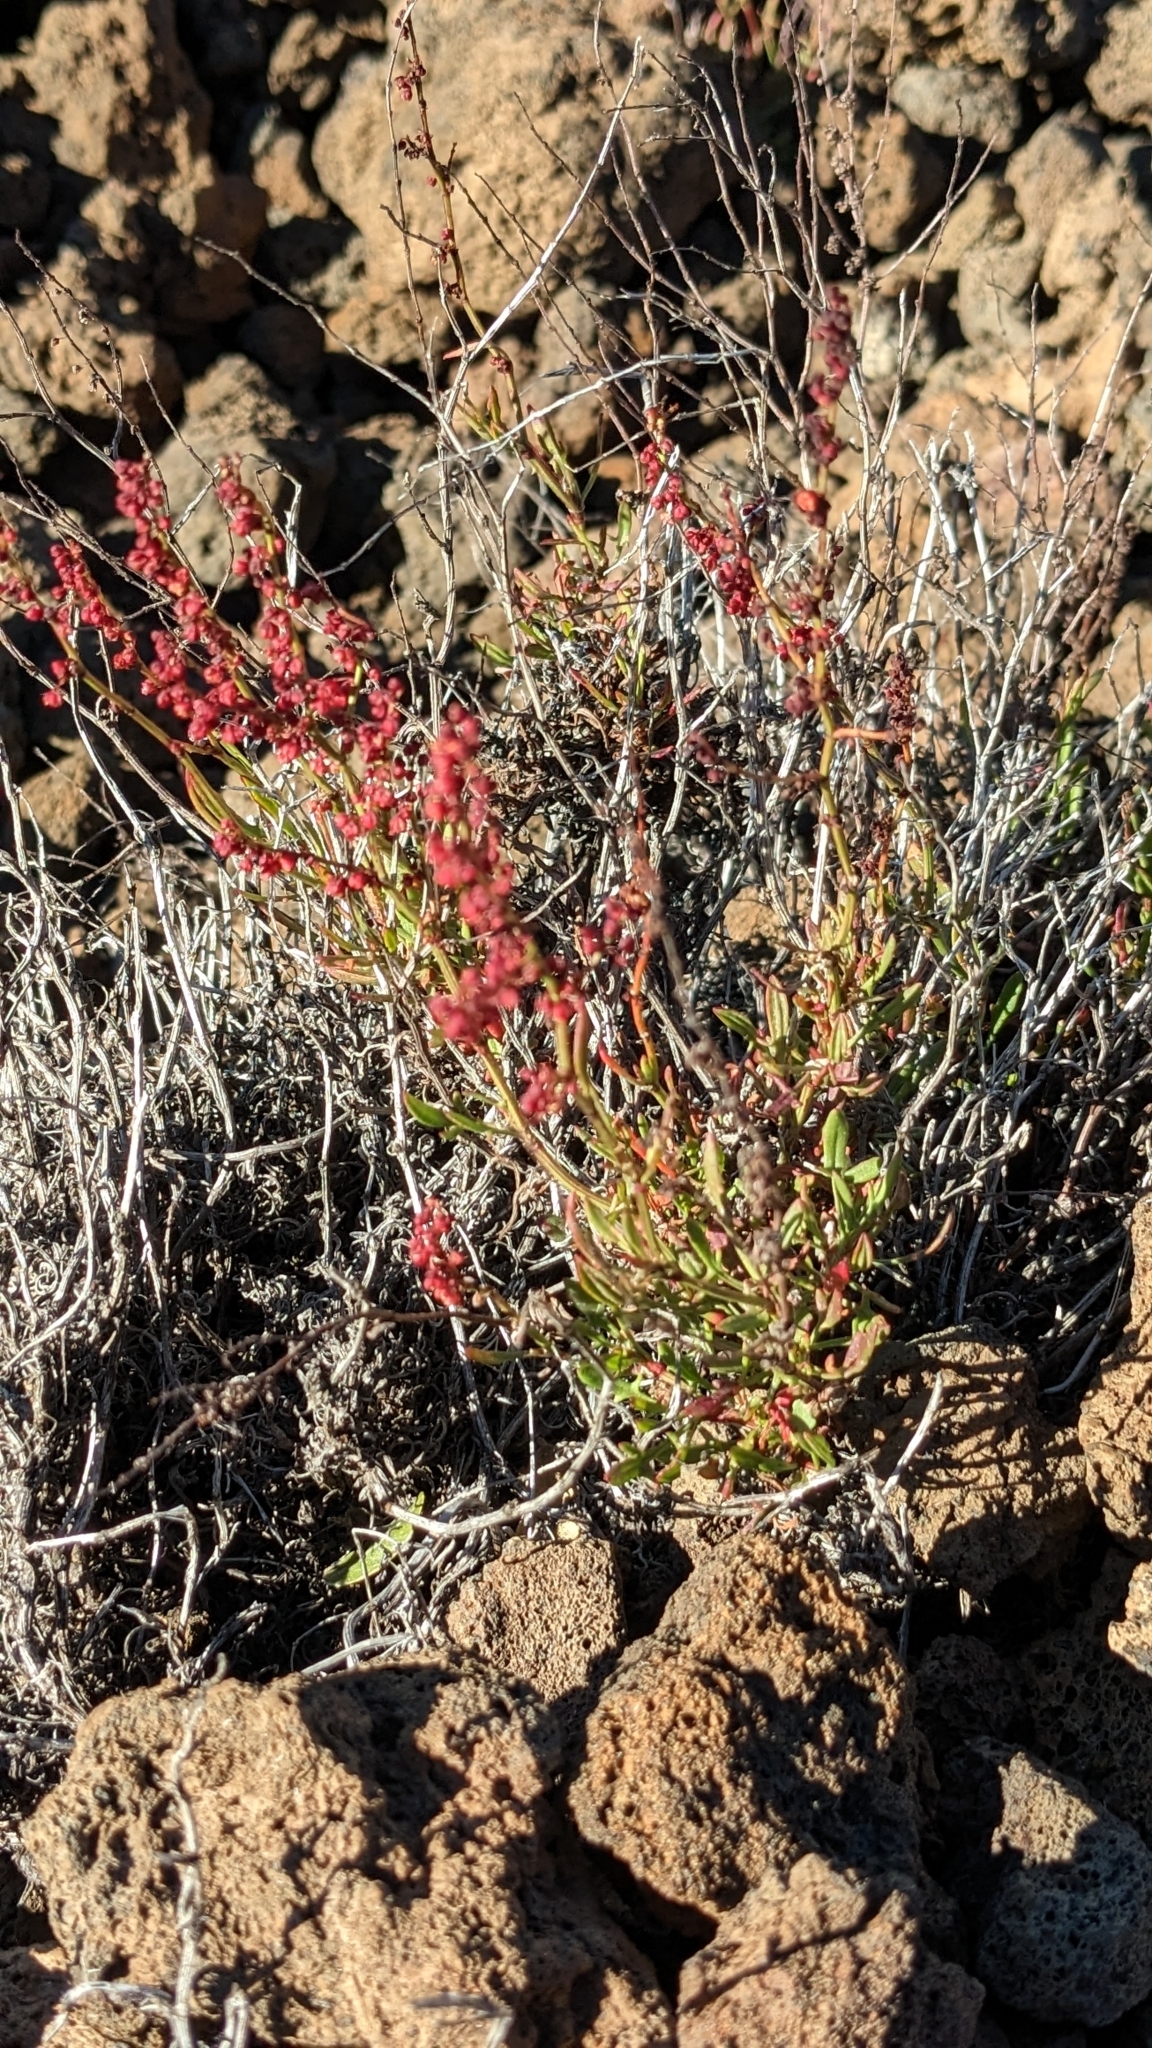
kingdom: Plantae
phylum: Tracheophyta
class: Magnoliopsida
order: Caryophyllales
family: Polygonaceae
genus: Rumex
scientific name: Rumex acetosella
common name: Common sheep sorrel
